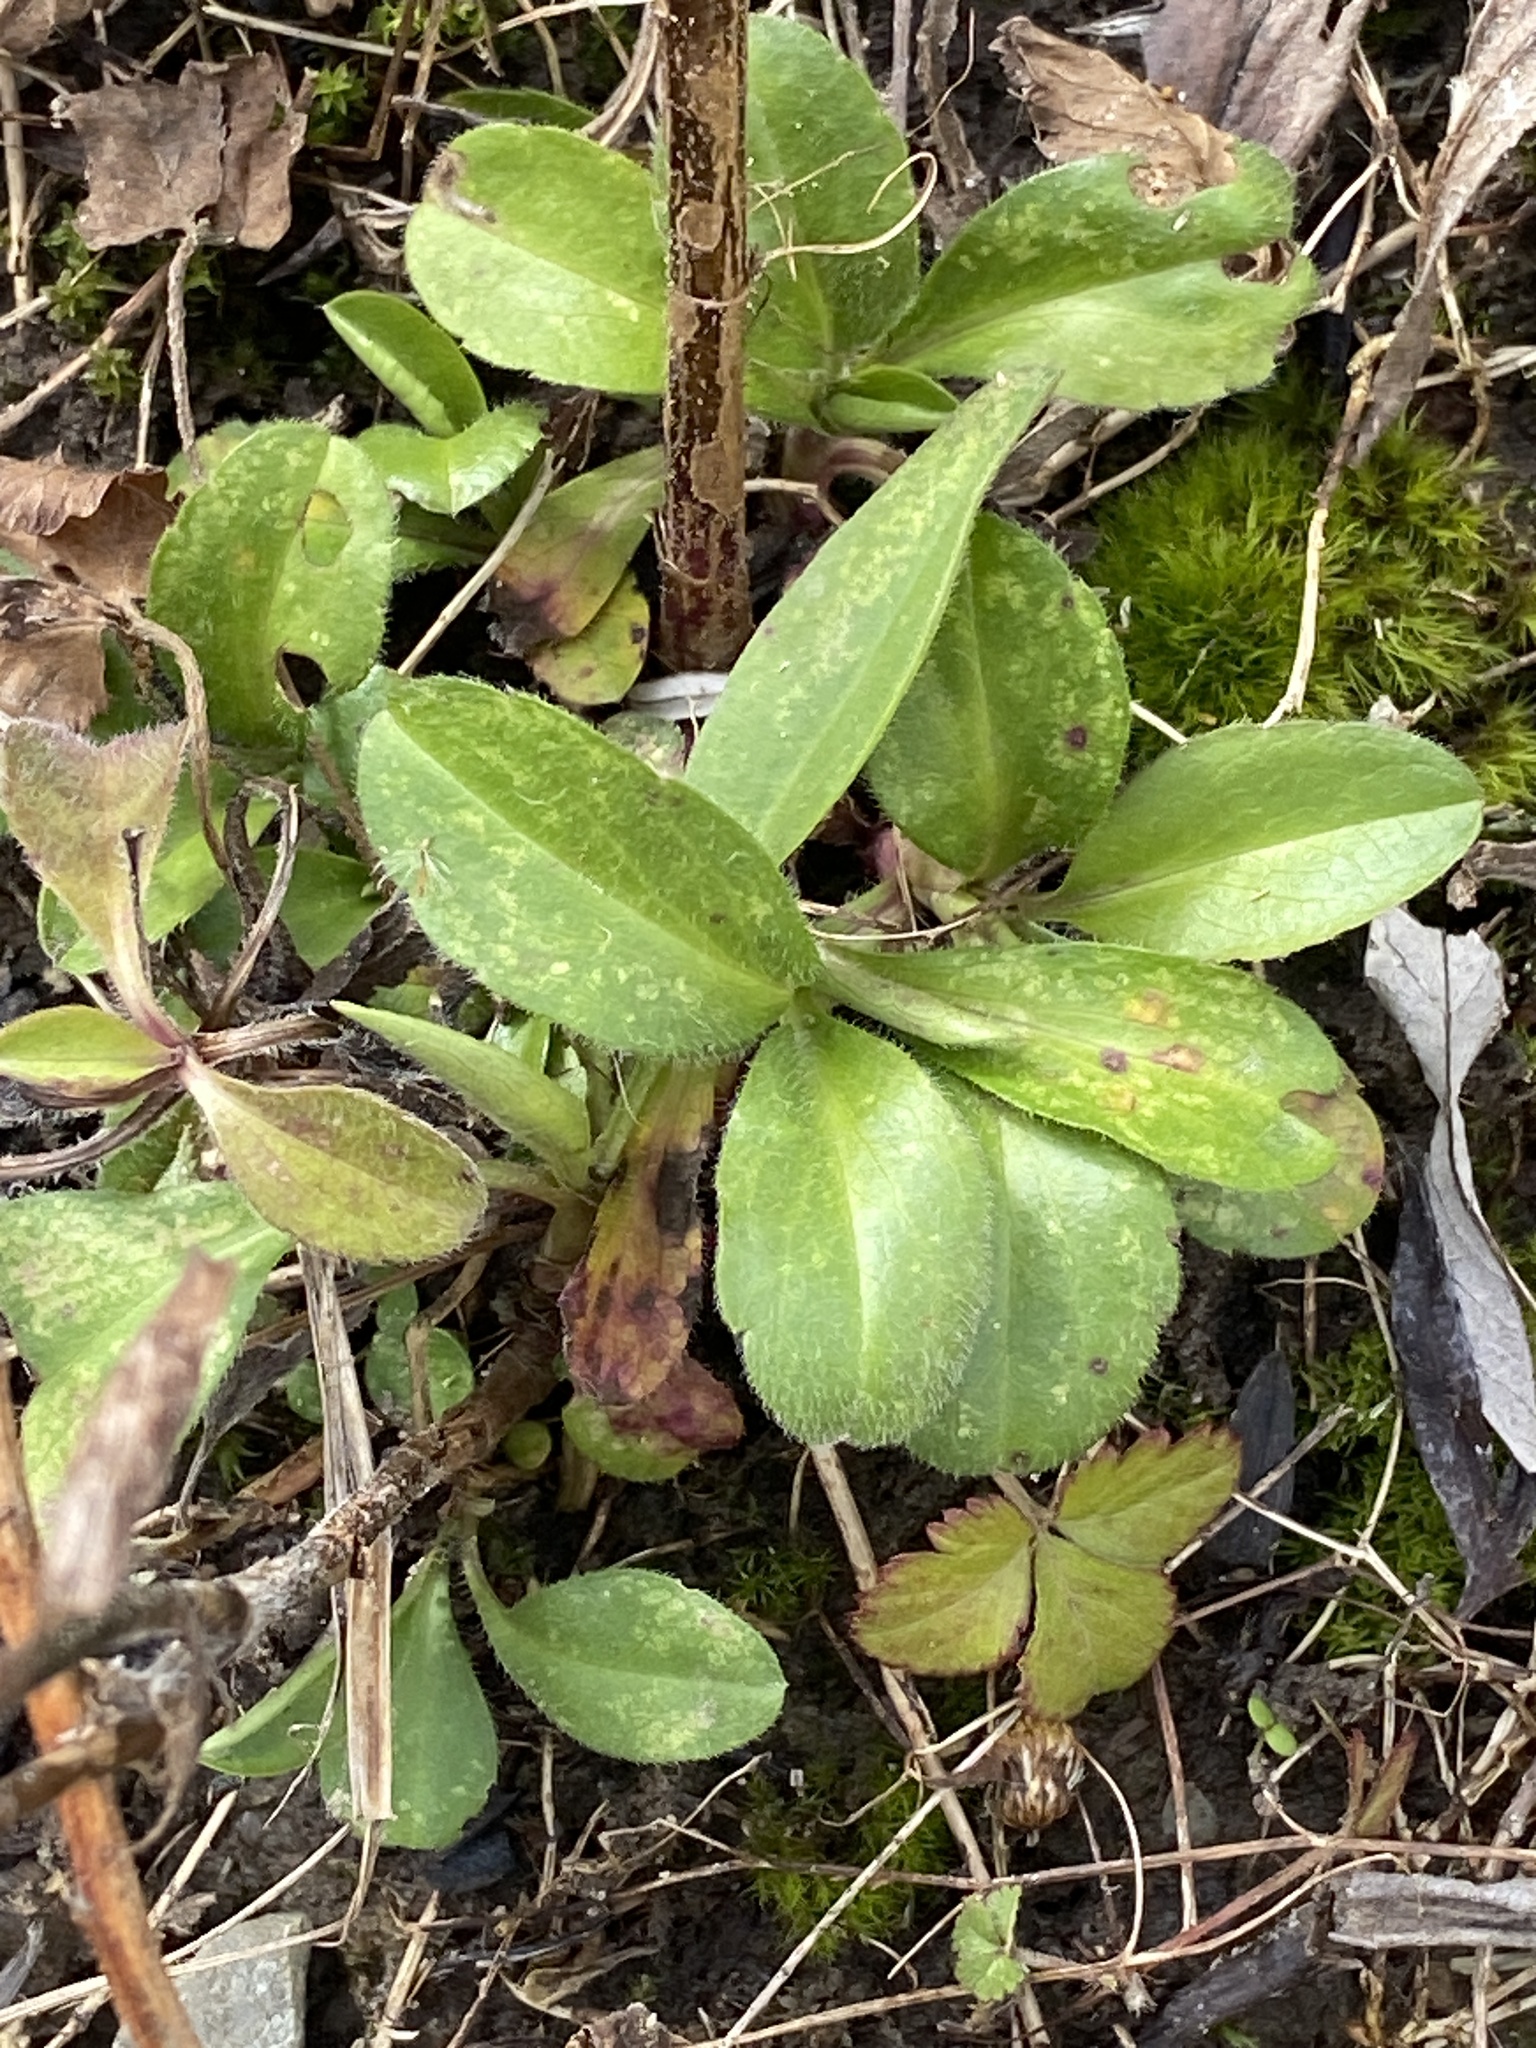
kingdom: Plantae
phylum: Tracheophyta
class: Magnoliopsida
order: Asterales
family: Asteraceae
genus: Symphyotrichum
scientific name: Symphyotrichum pilosum
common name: Awl aster
